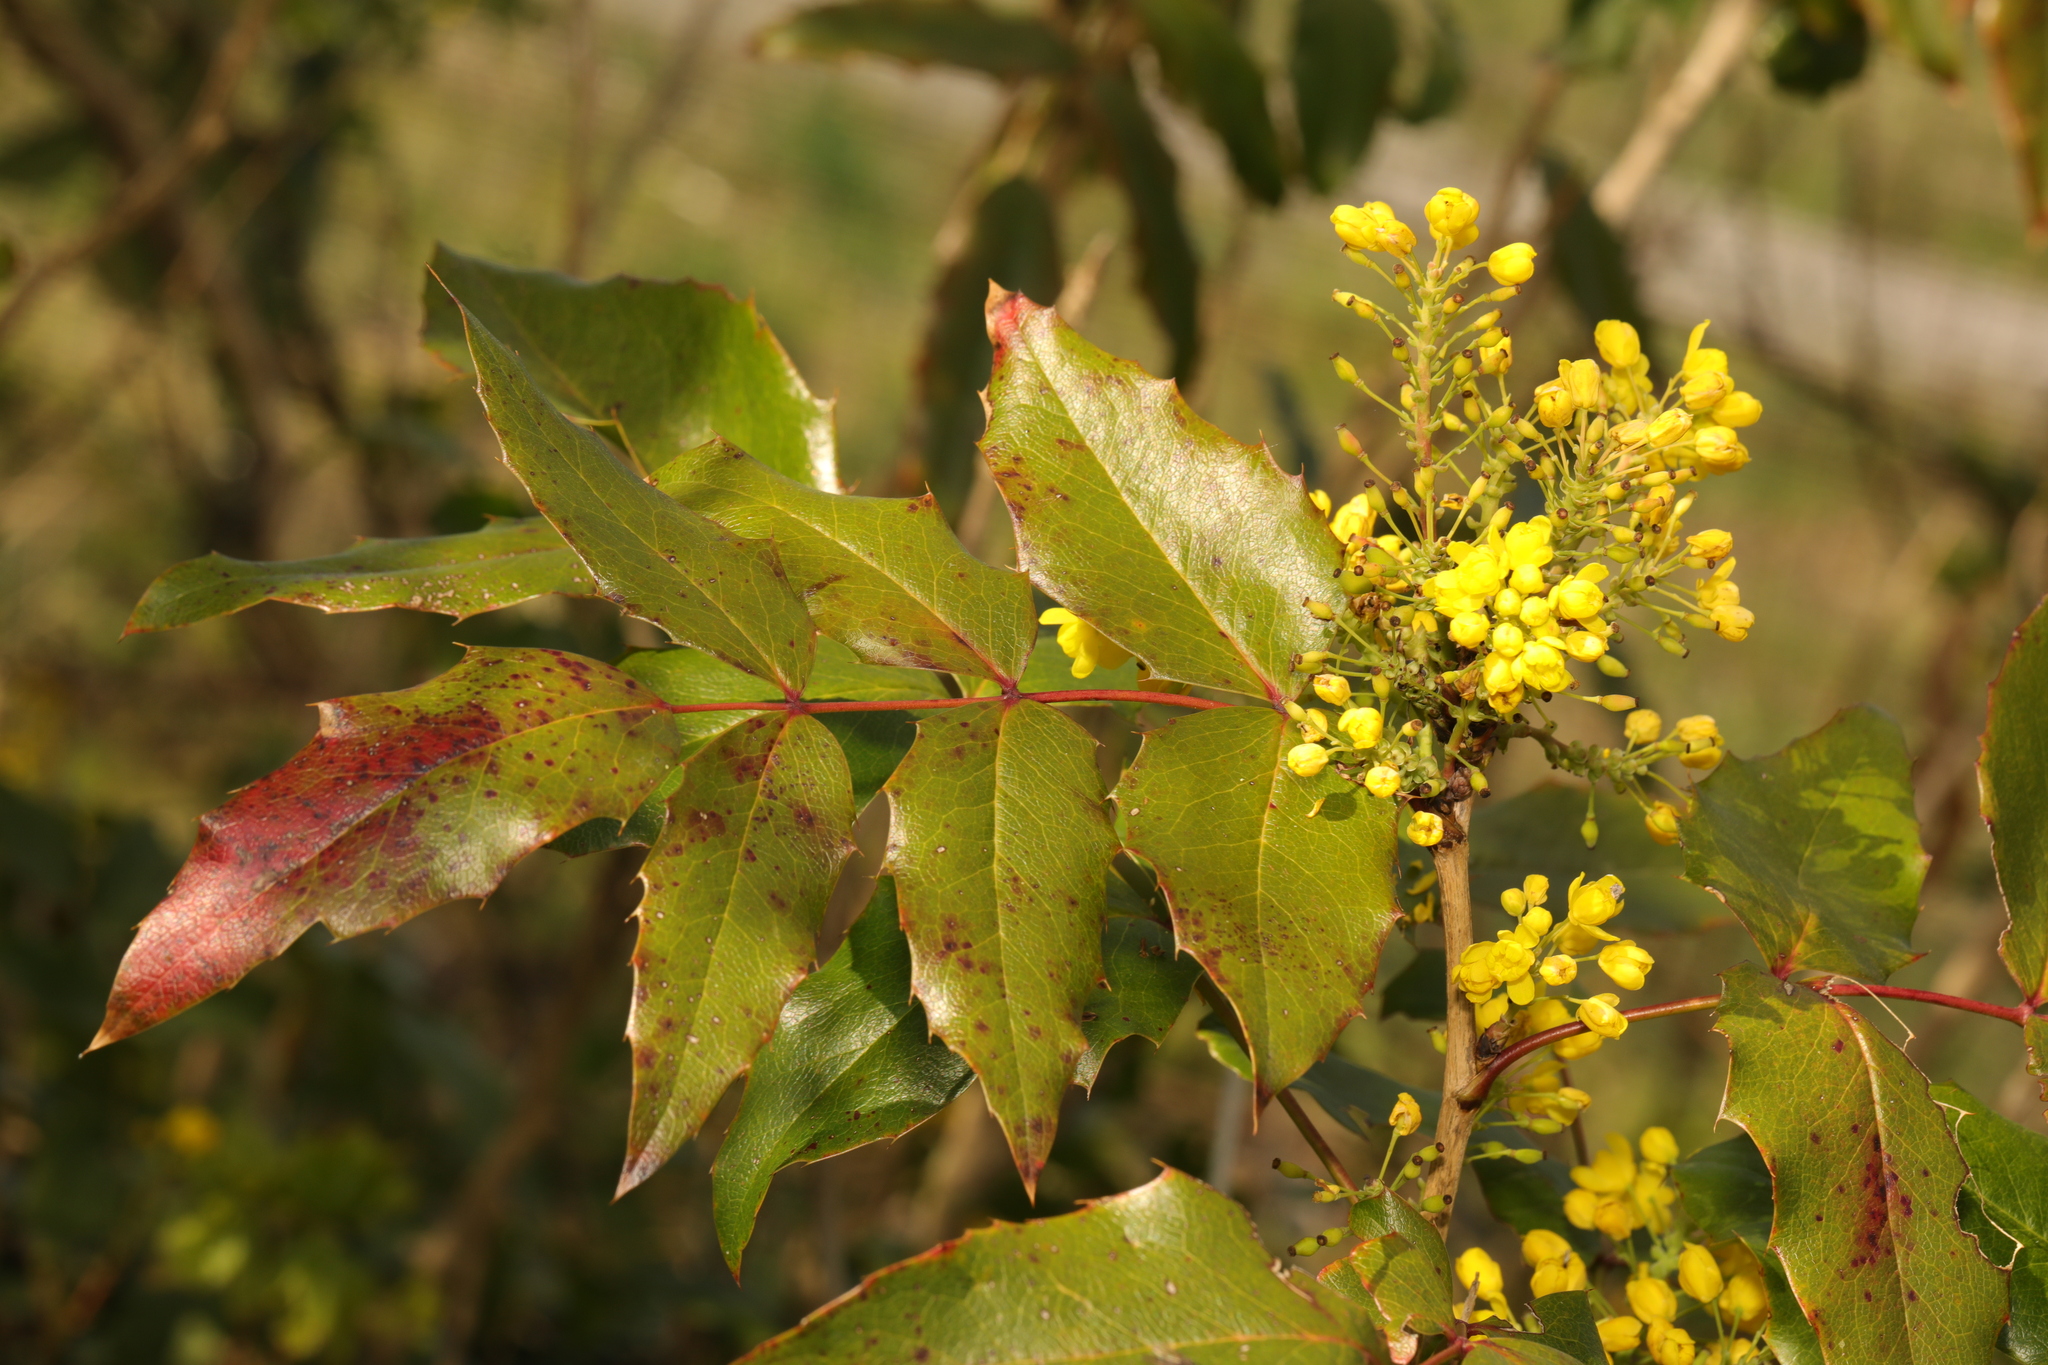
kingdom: Plantae
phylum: Tracheophyta
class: Magnoliopsida
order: Ranunculales
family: Berberidaceae
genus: Mahonia
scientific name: Mahonia aquifolium
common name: Oregon-grape
